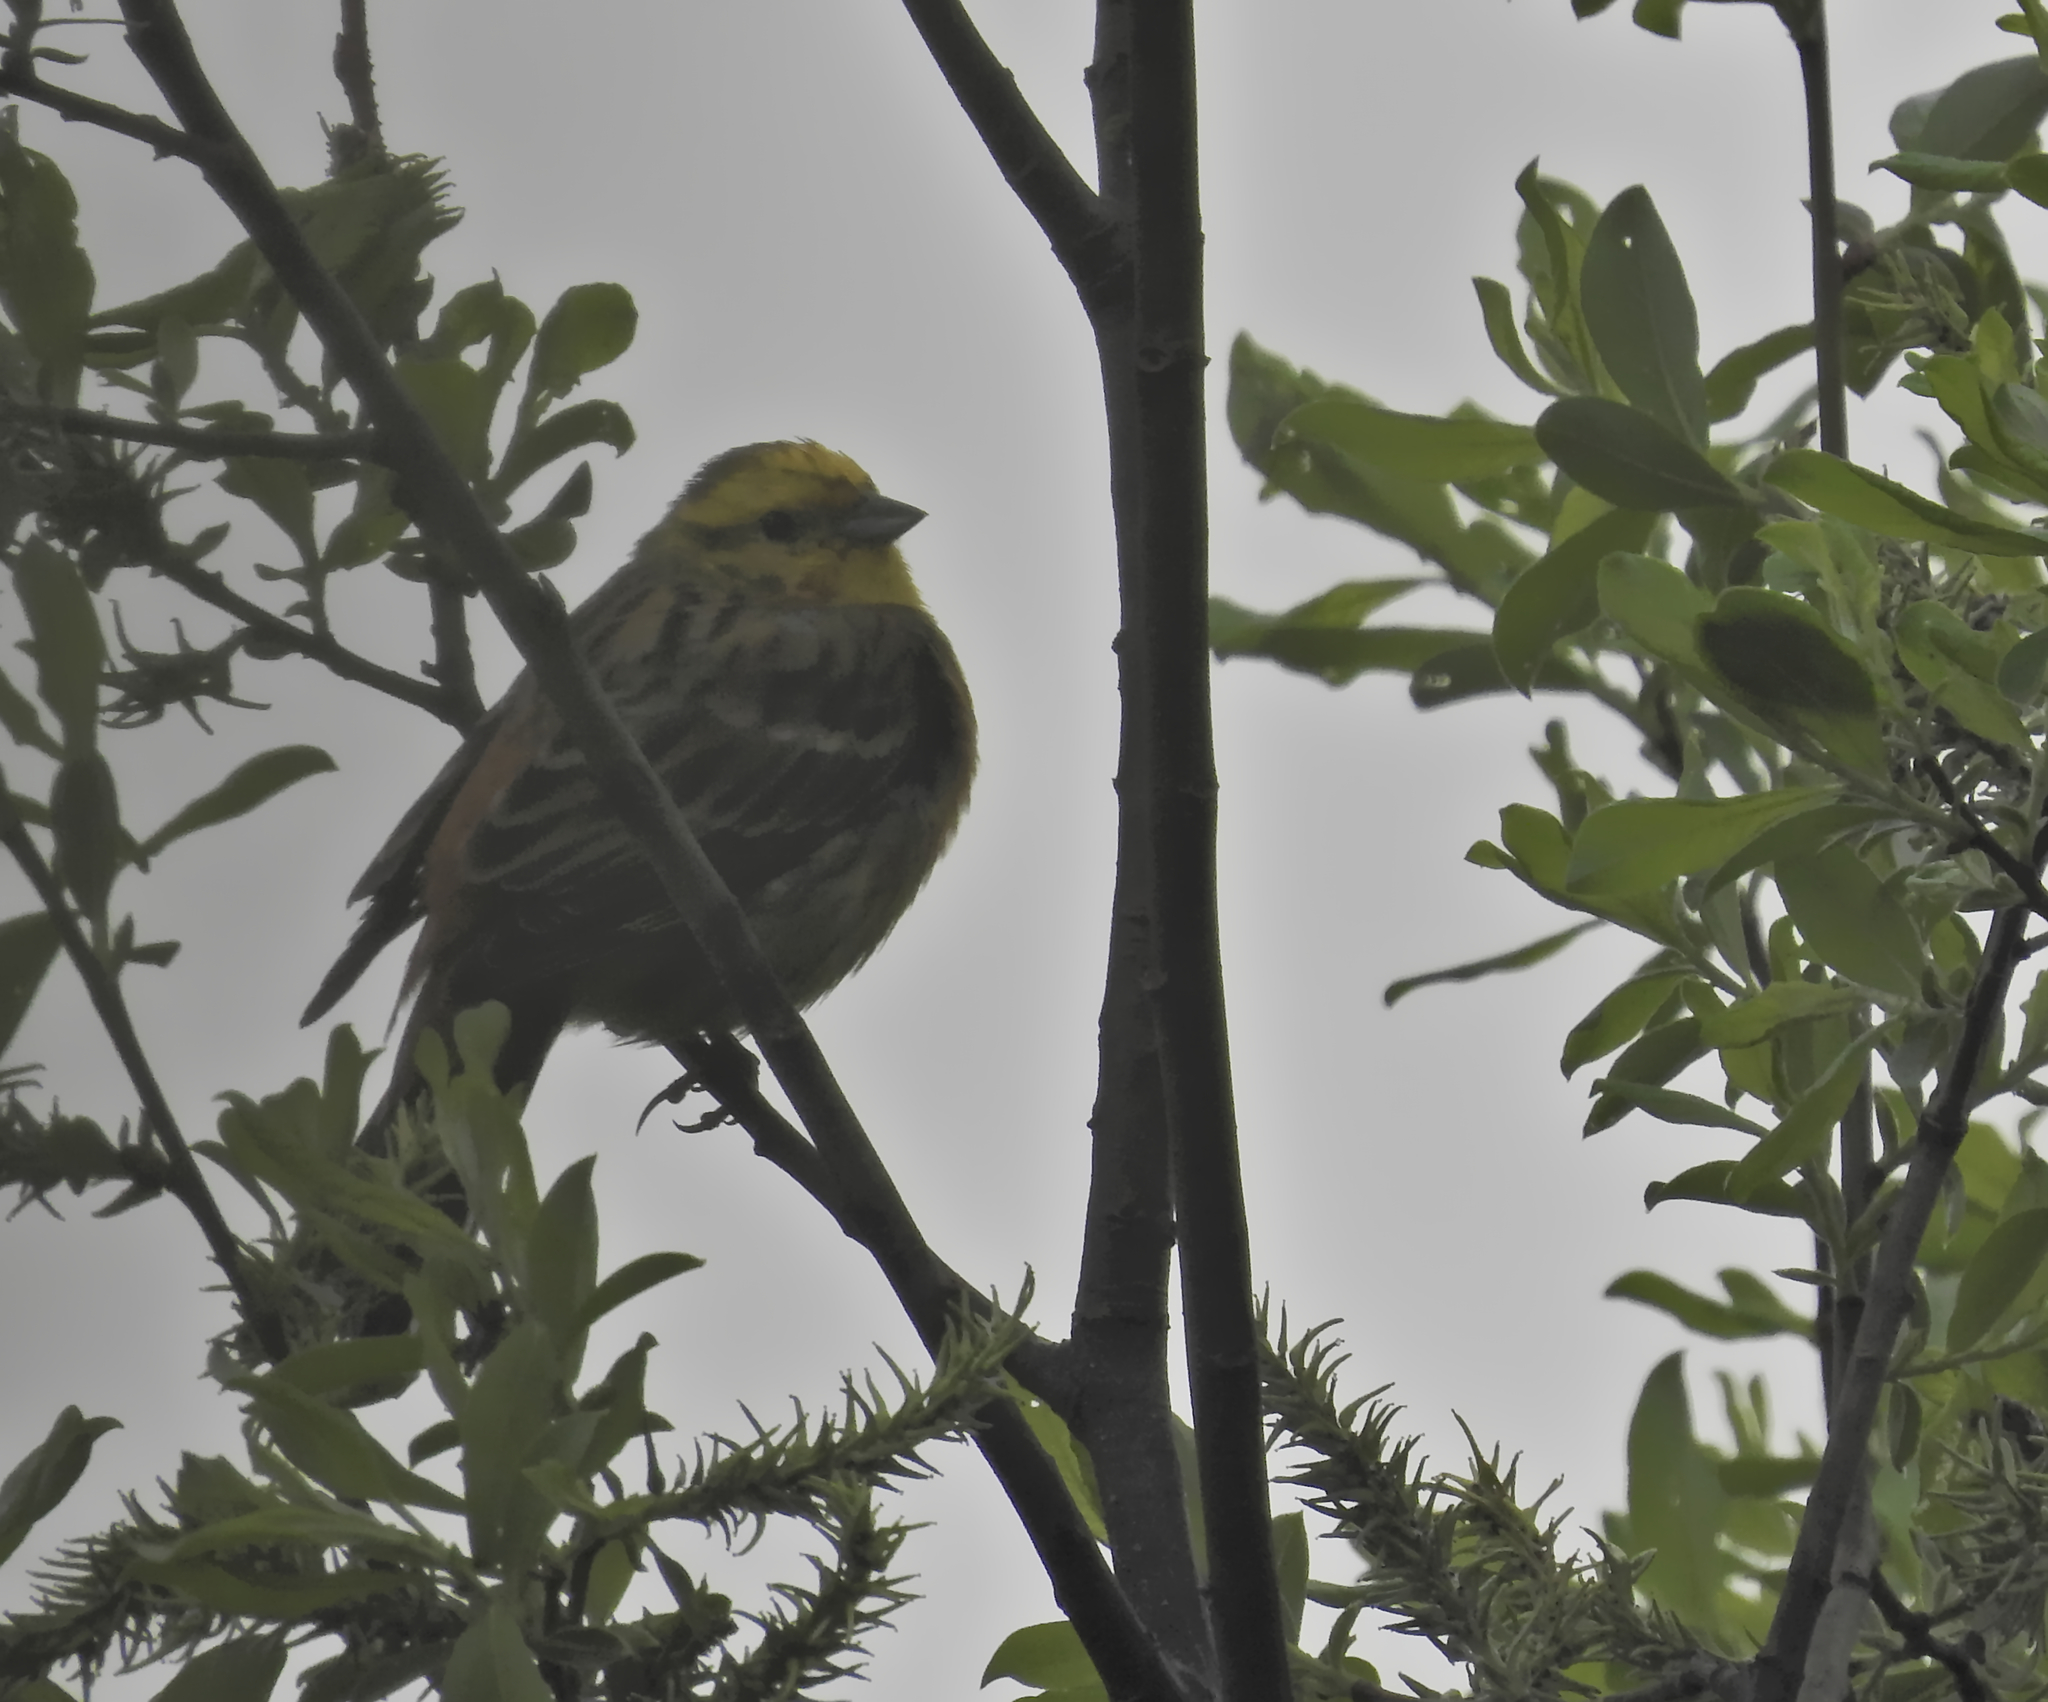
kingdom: Animalia
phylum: Chordata
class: Aves
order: Passeriformes
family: Emberizidae
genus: Emberiza
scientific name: Emberiza citrinella
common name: Yellowhammer
